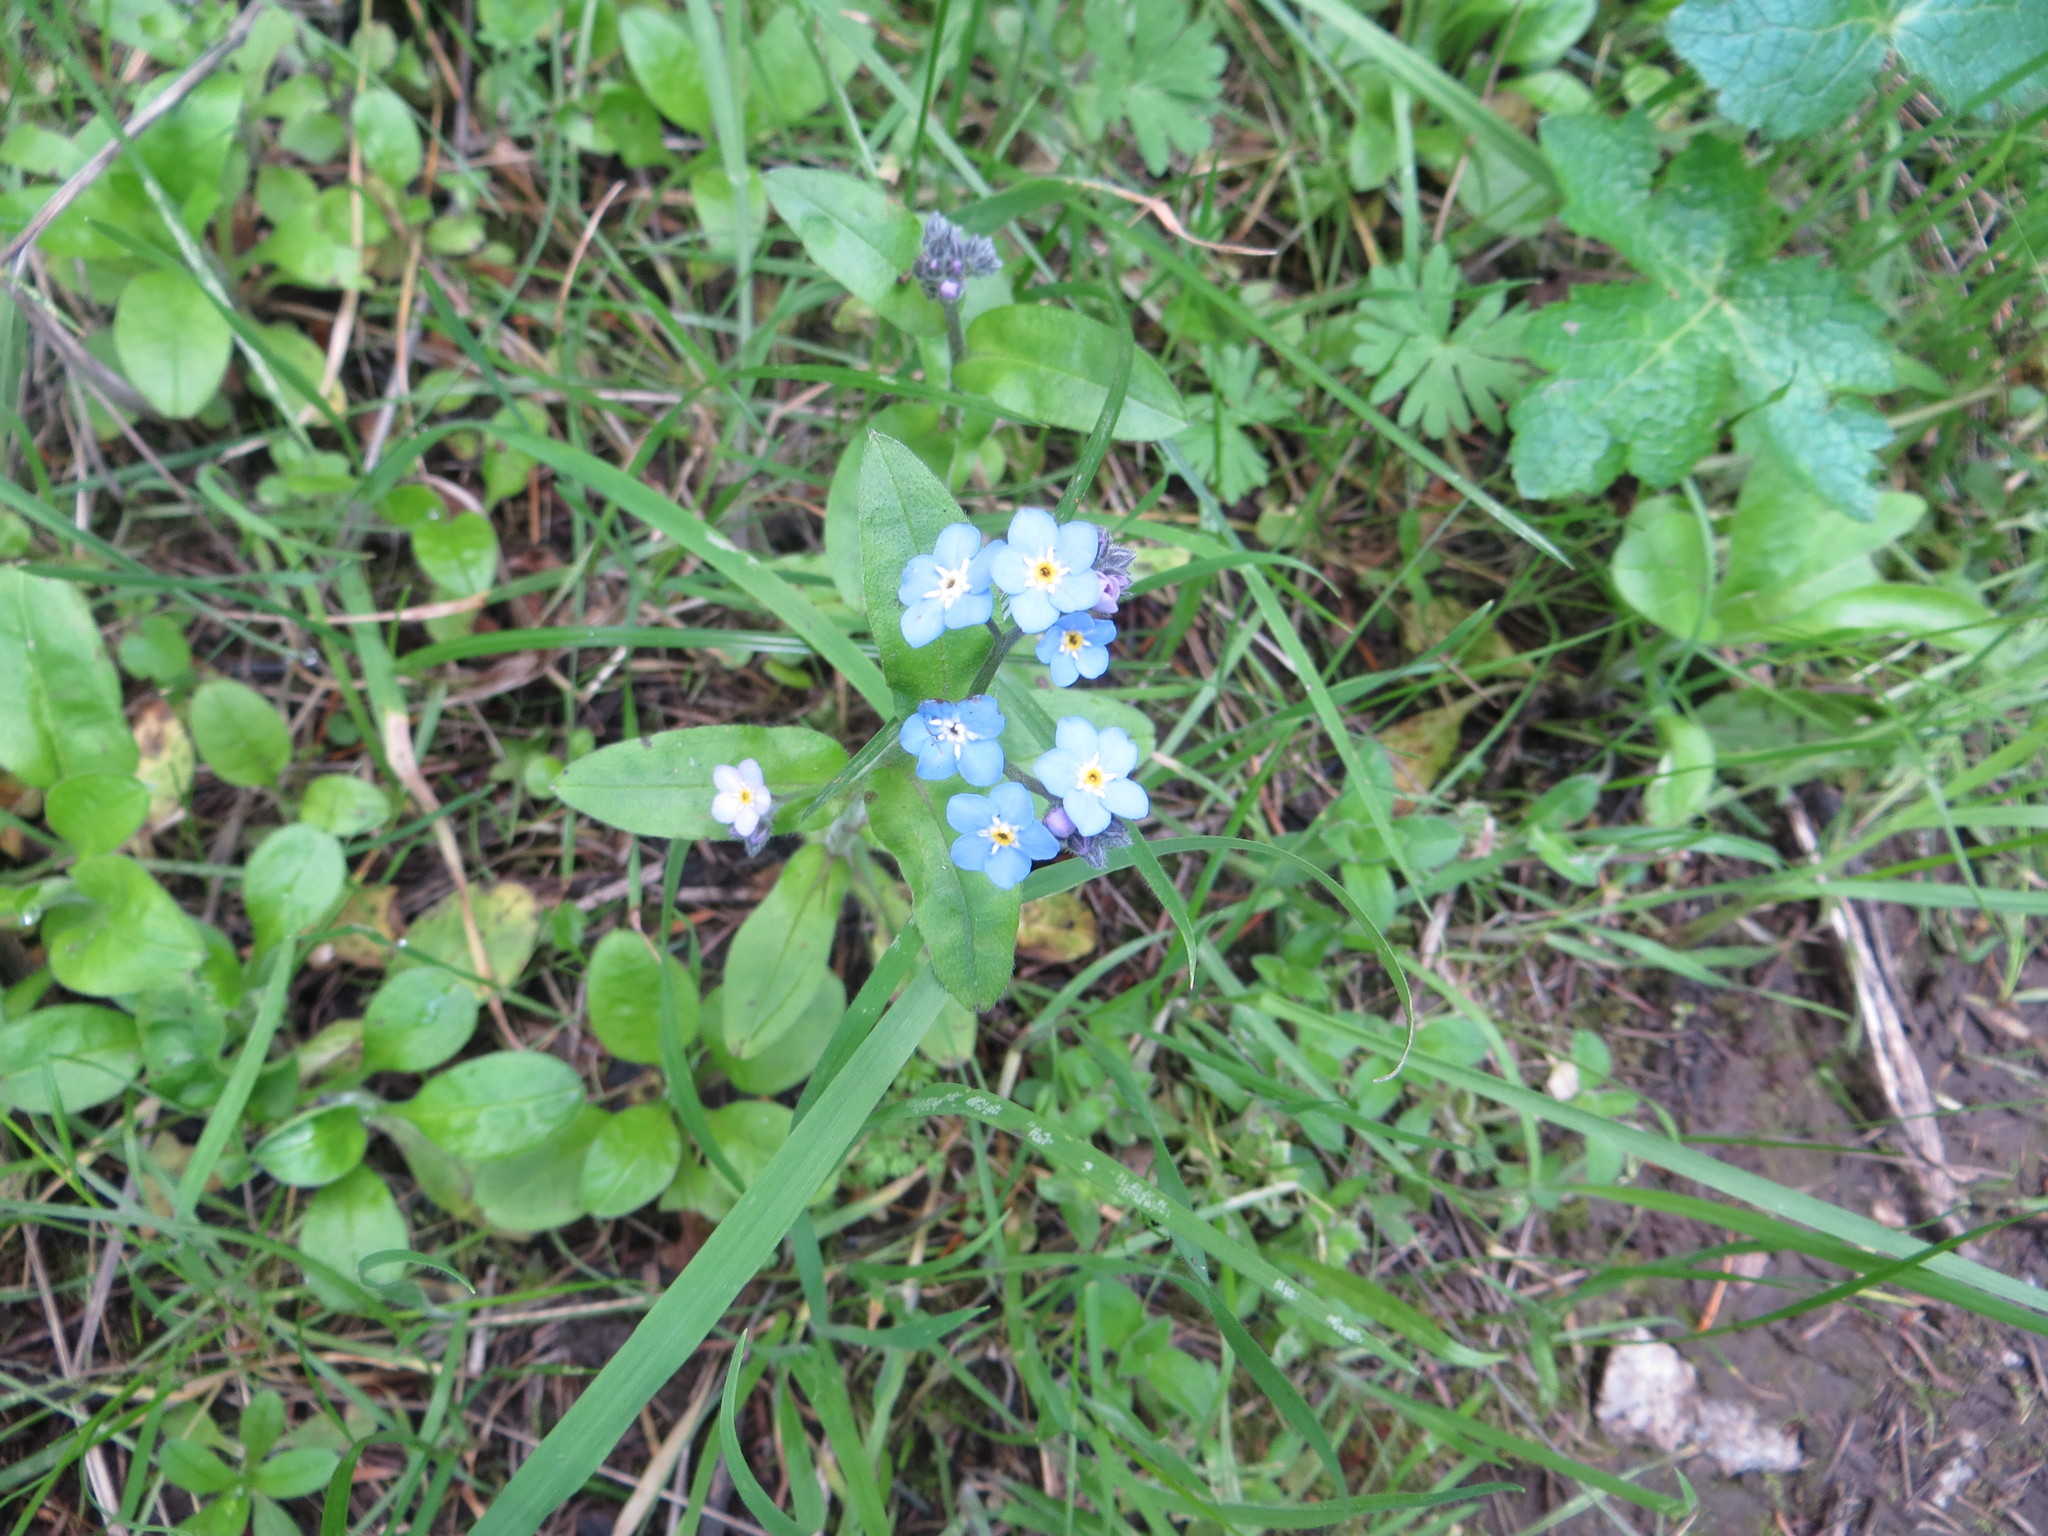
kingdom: Plantae
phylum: Tracheophyta
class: Magnoliopsida
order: Boraginales
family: Boraginaceae
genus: Myosotis
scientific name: Myosotis latifolia
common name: Broadleaf forget-me-not
